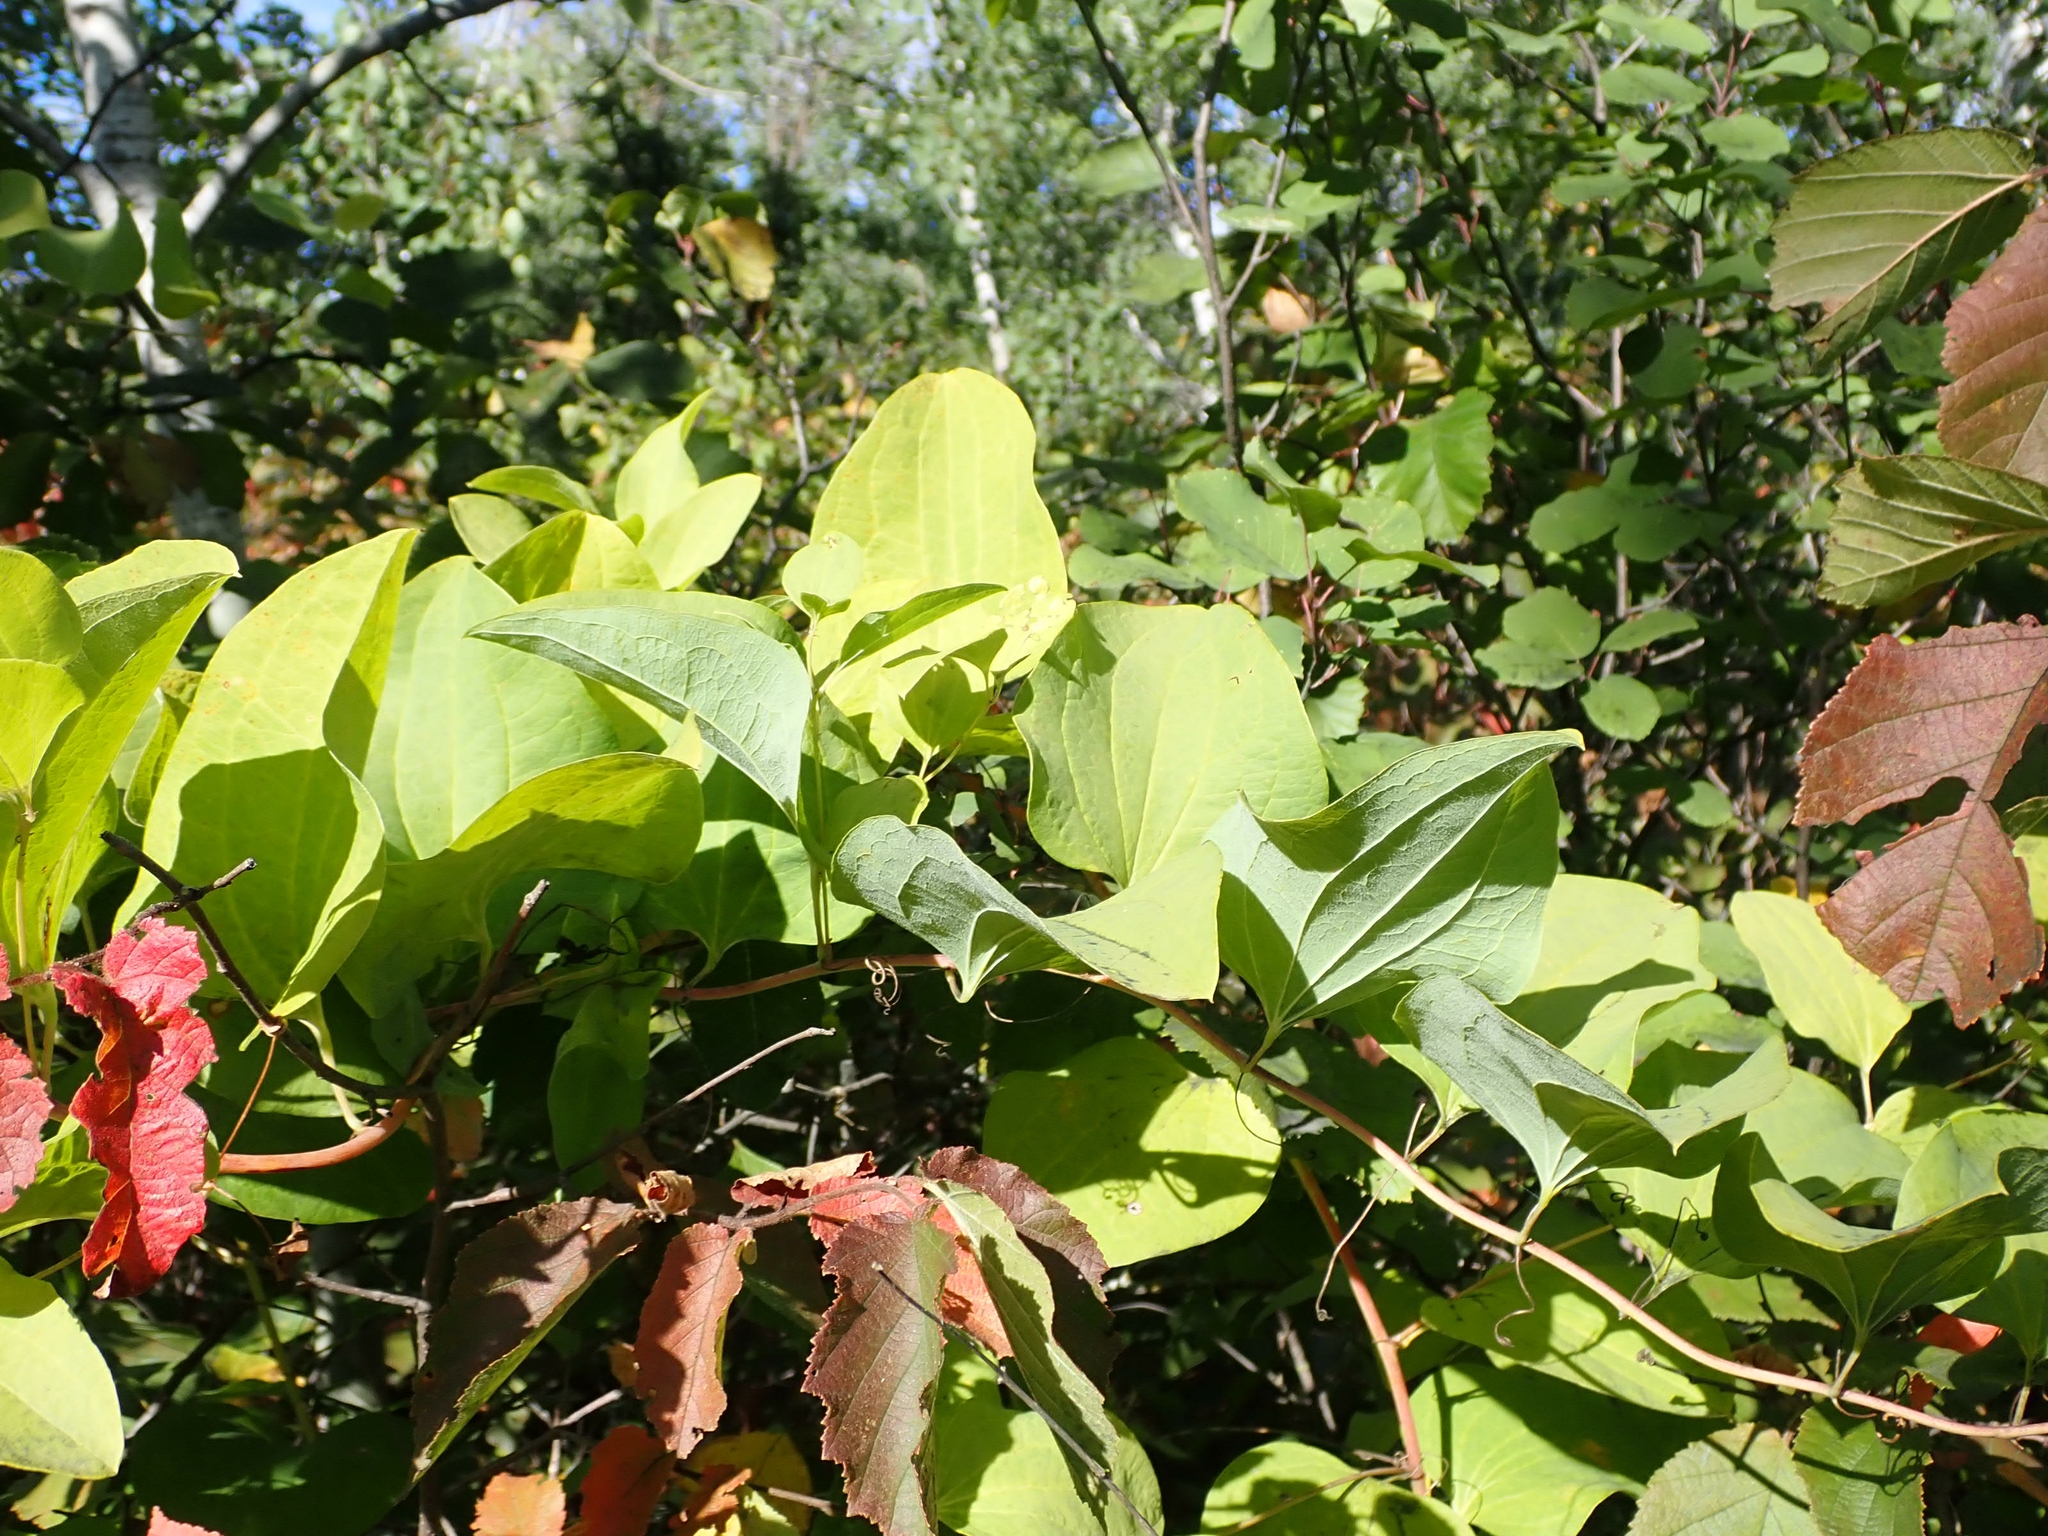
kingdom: Plantae
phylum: Tracheophyta
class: Liliopsida
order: Liliales
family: Smilacaceae
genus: Smilax
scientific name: Smilax lasioneura
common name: Blue ridge carrionflower
